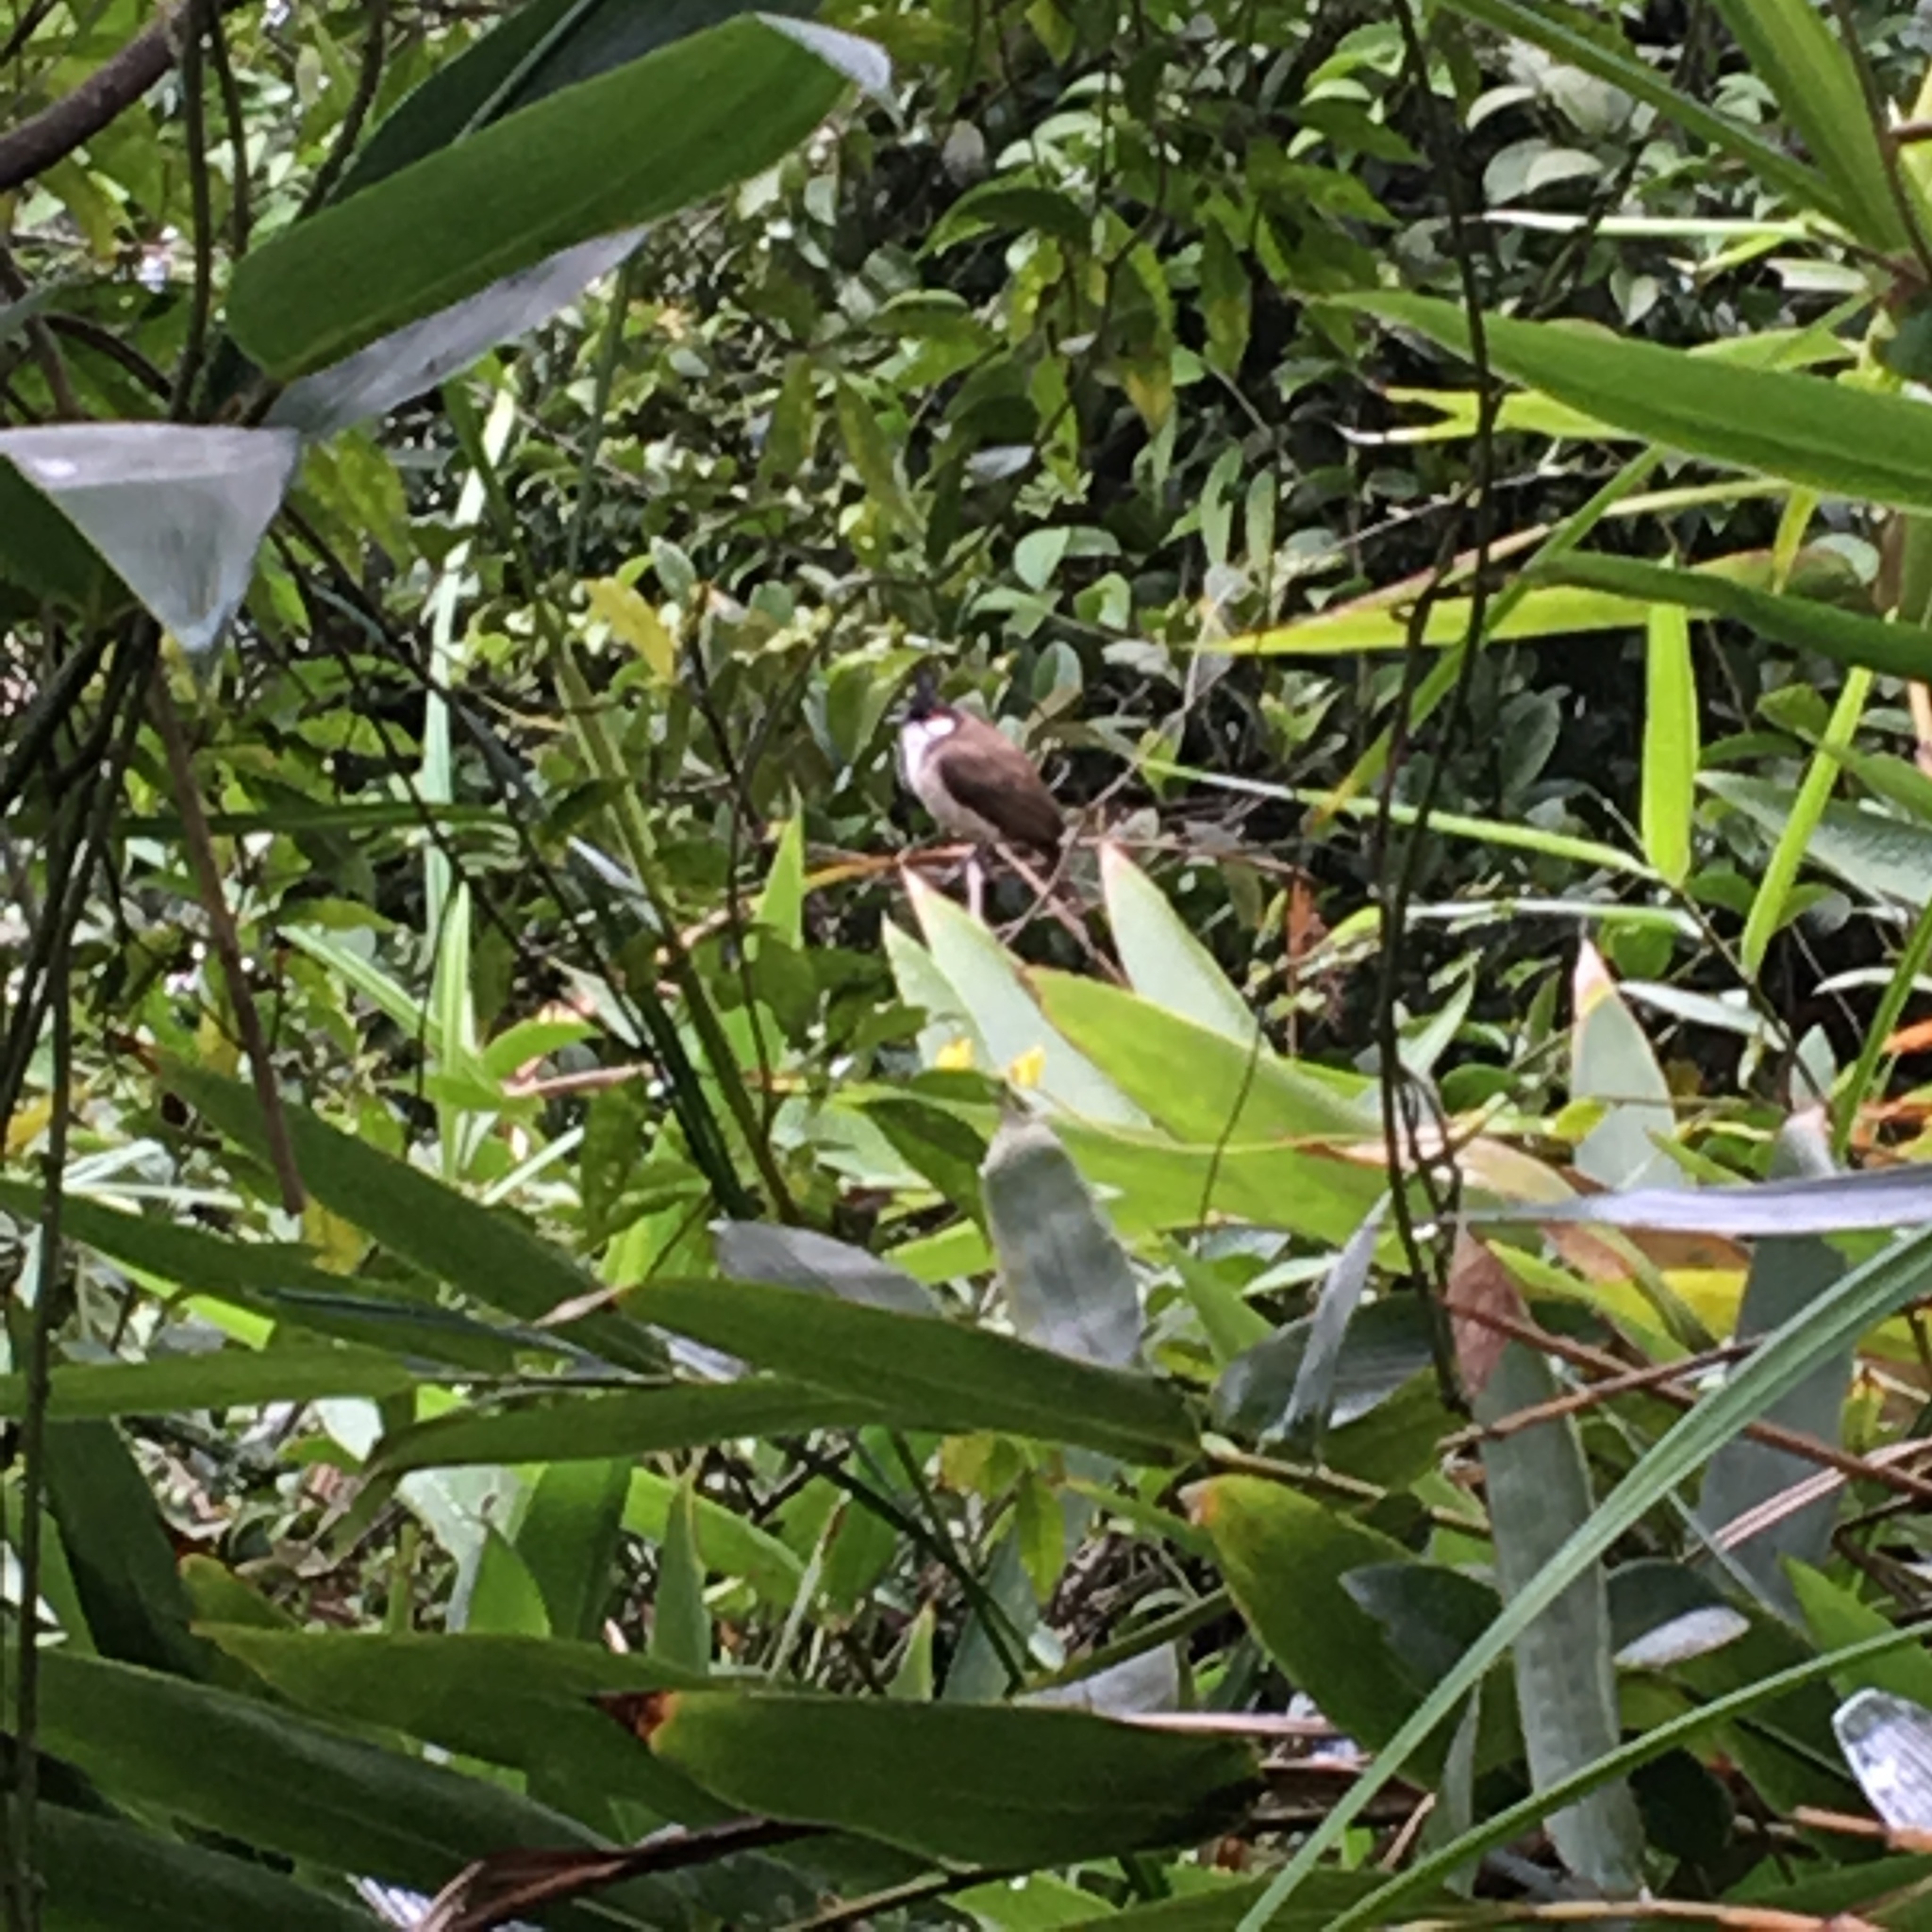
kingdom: Animalia
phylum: Chordata
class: Aves
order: Passeriformes
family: Pycnonotidae
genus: Pycnonotus
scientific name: Pycnonotus jocosus
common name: Red-whiskered bulbul
